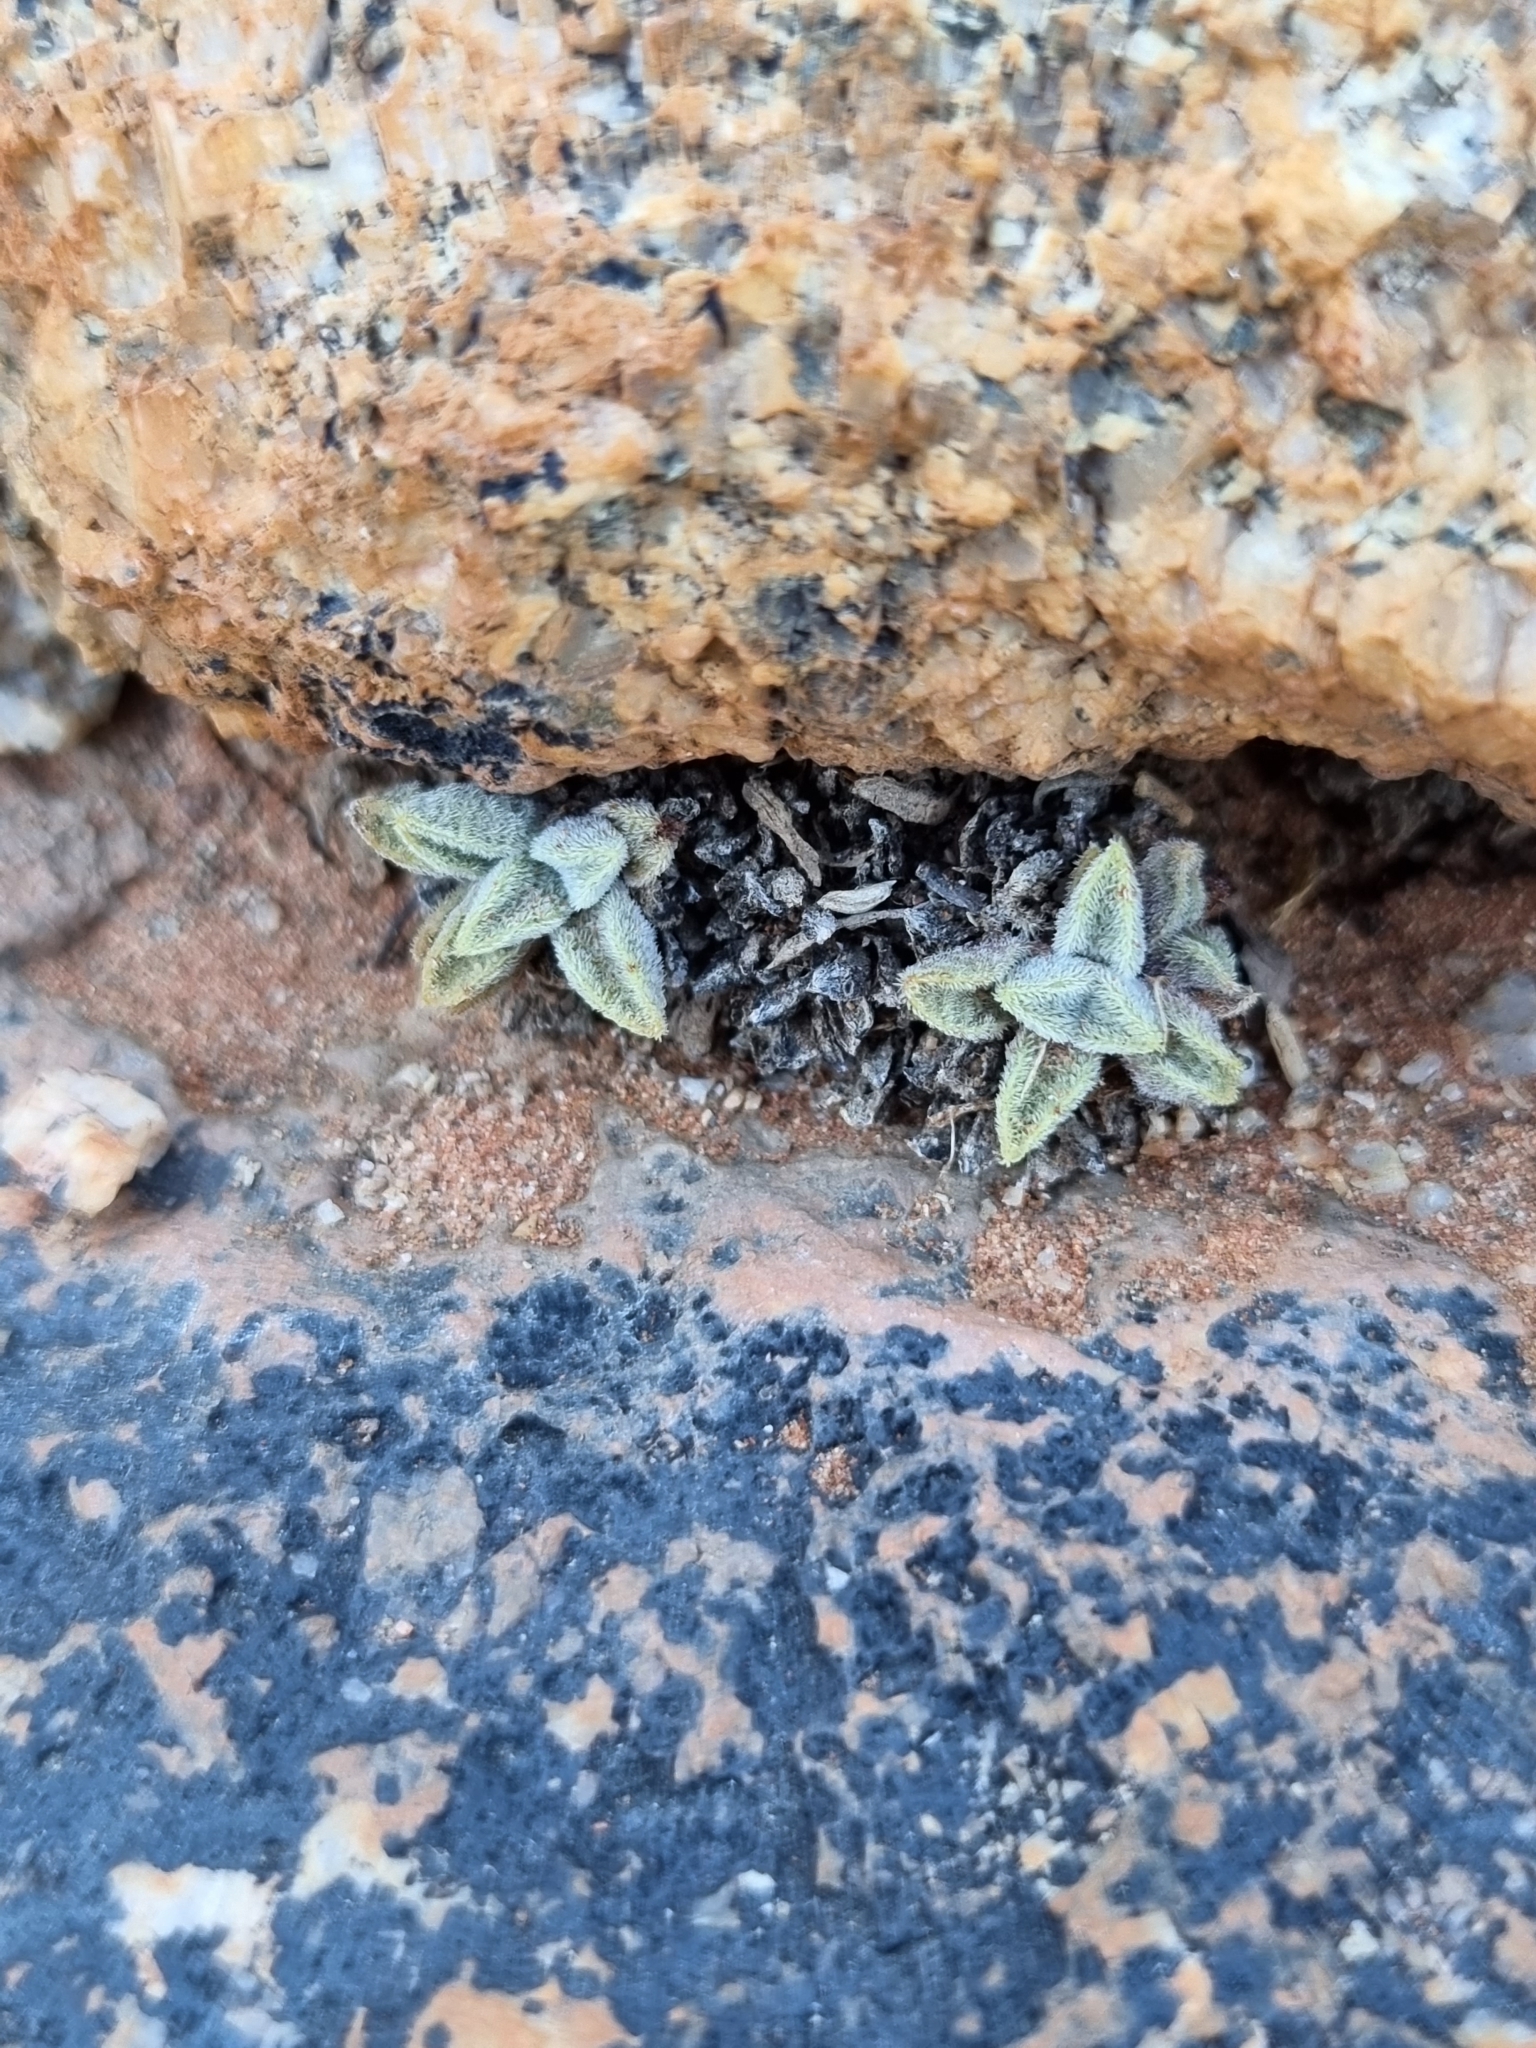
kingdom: Plantae
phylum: Tracheophyta
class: Magnoliopsida
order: Saxifragales
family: Crassulaceae
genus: Crassula
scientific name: Crassula ausensis
